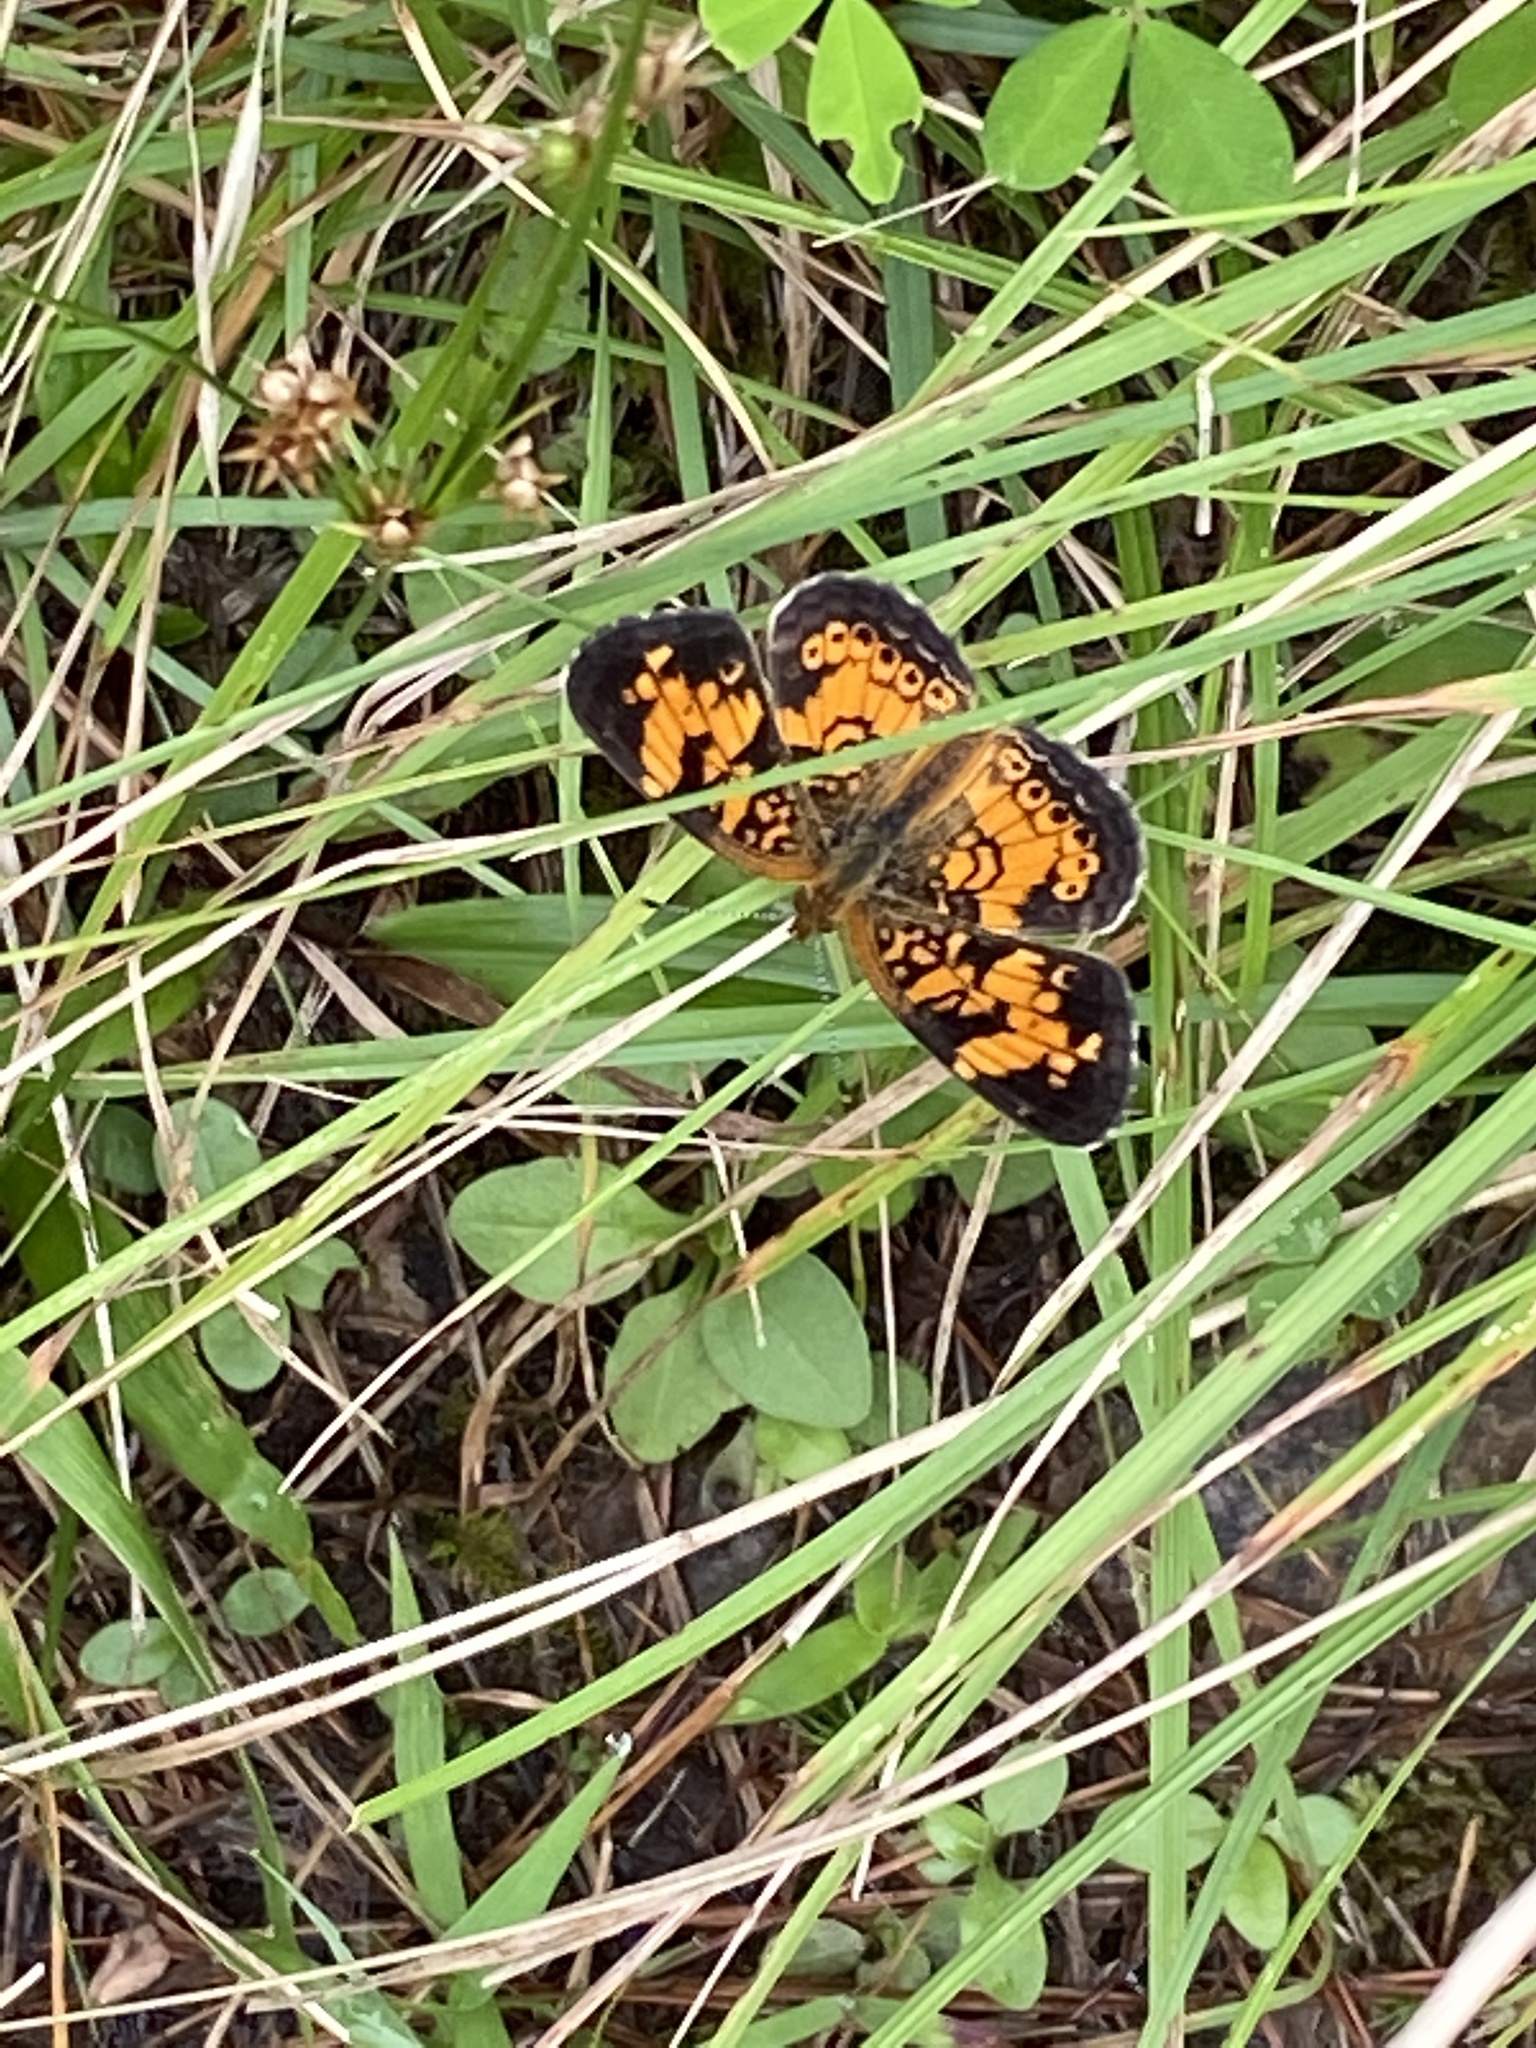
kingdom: Animalia
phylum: Arthropoda
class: Insecta
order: Lepidoptera
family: Nymphalidae
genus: Phyciodes
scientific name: Phyciodes tharos
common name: Pearl crescent
